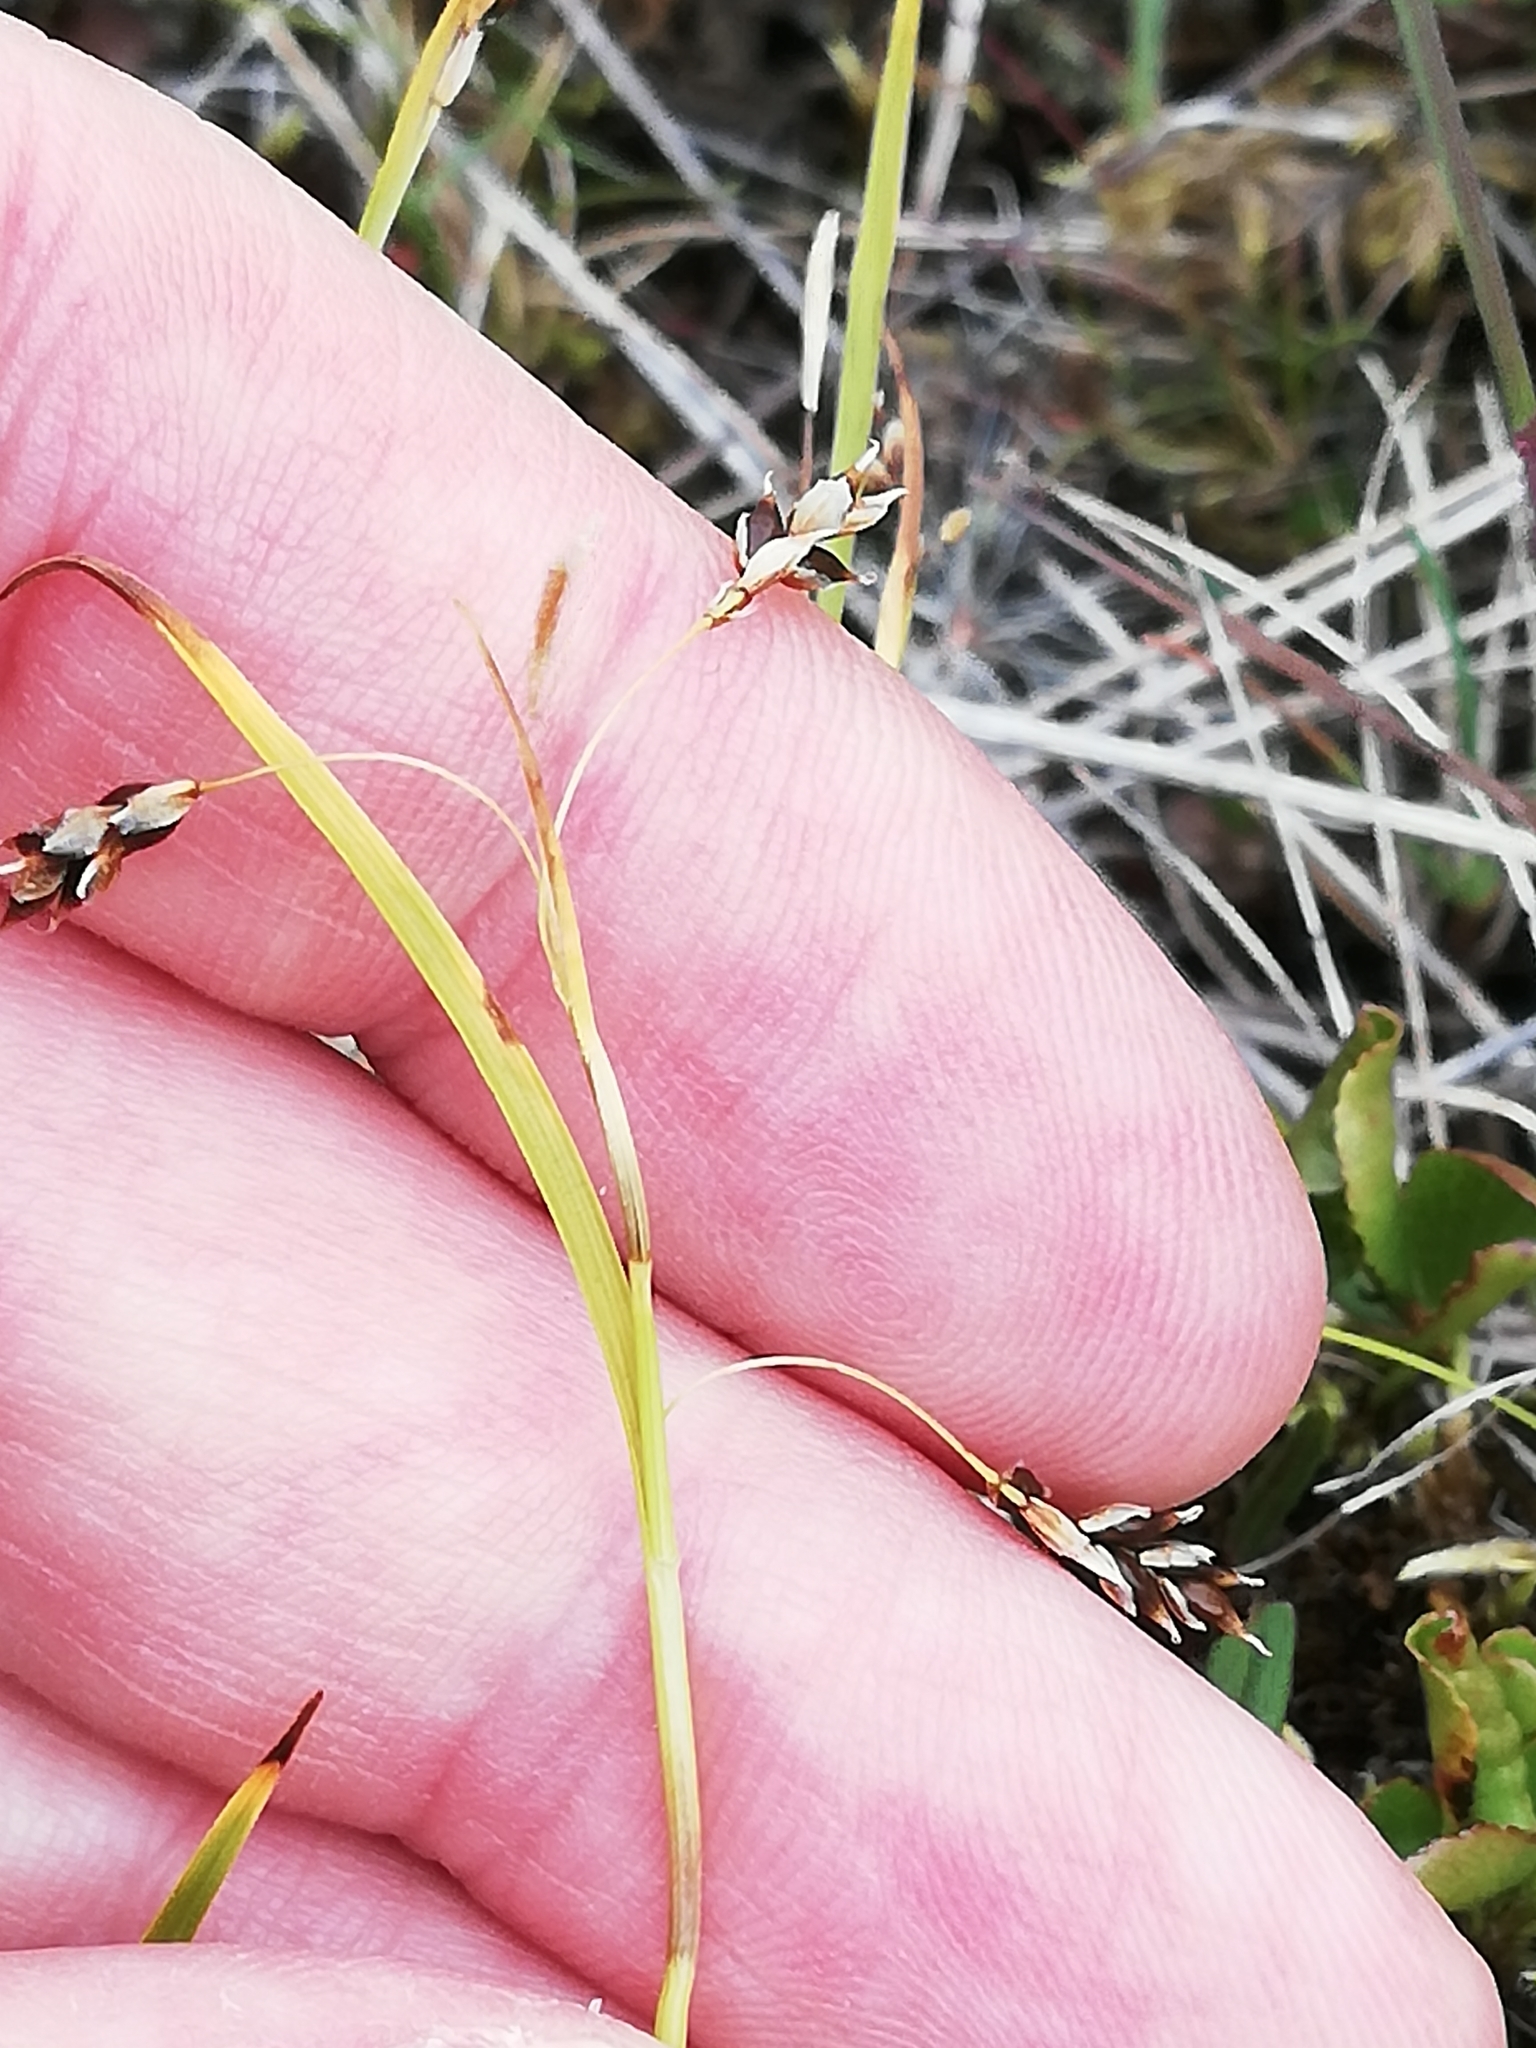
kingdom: Plantae
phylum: Tracheophyta
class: Liliopsida
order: Poales
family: Cyperaceae
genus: Carex
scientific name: Carex capillaris
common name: Hair sedge
